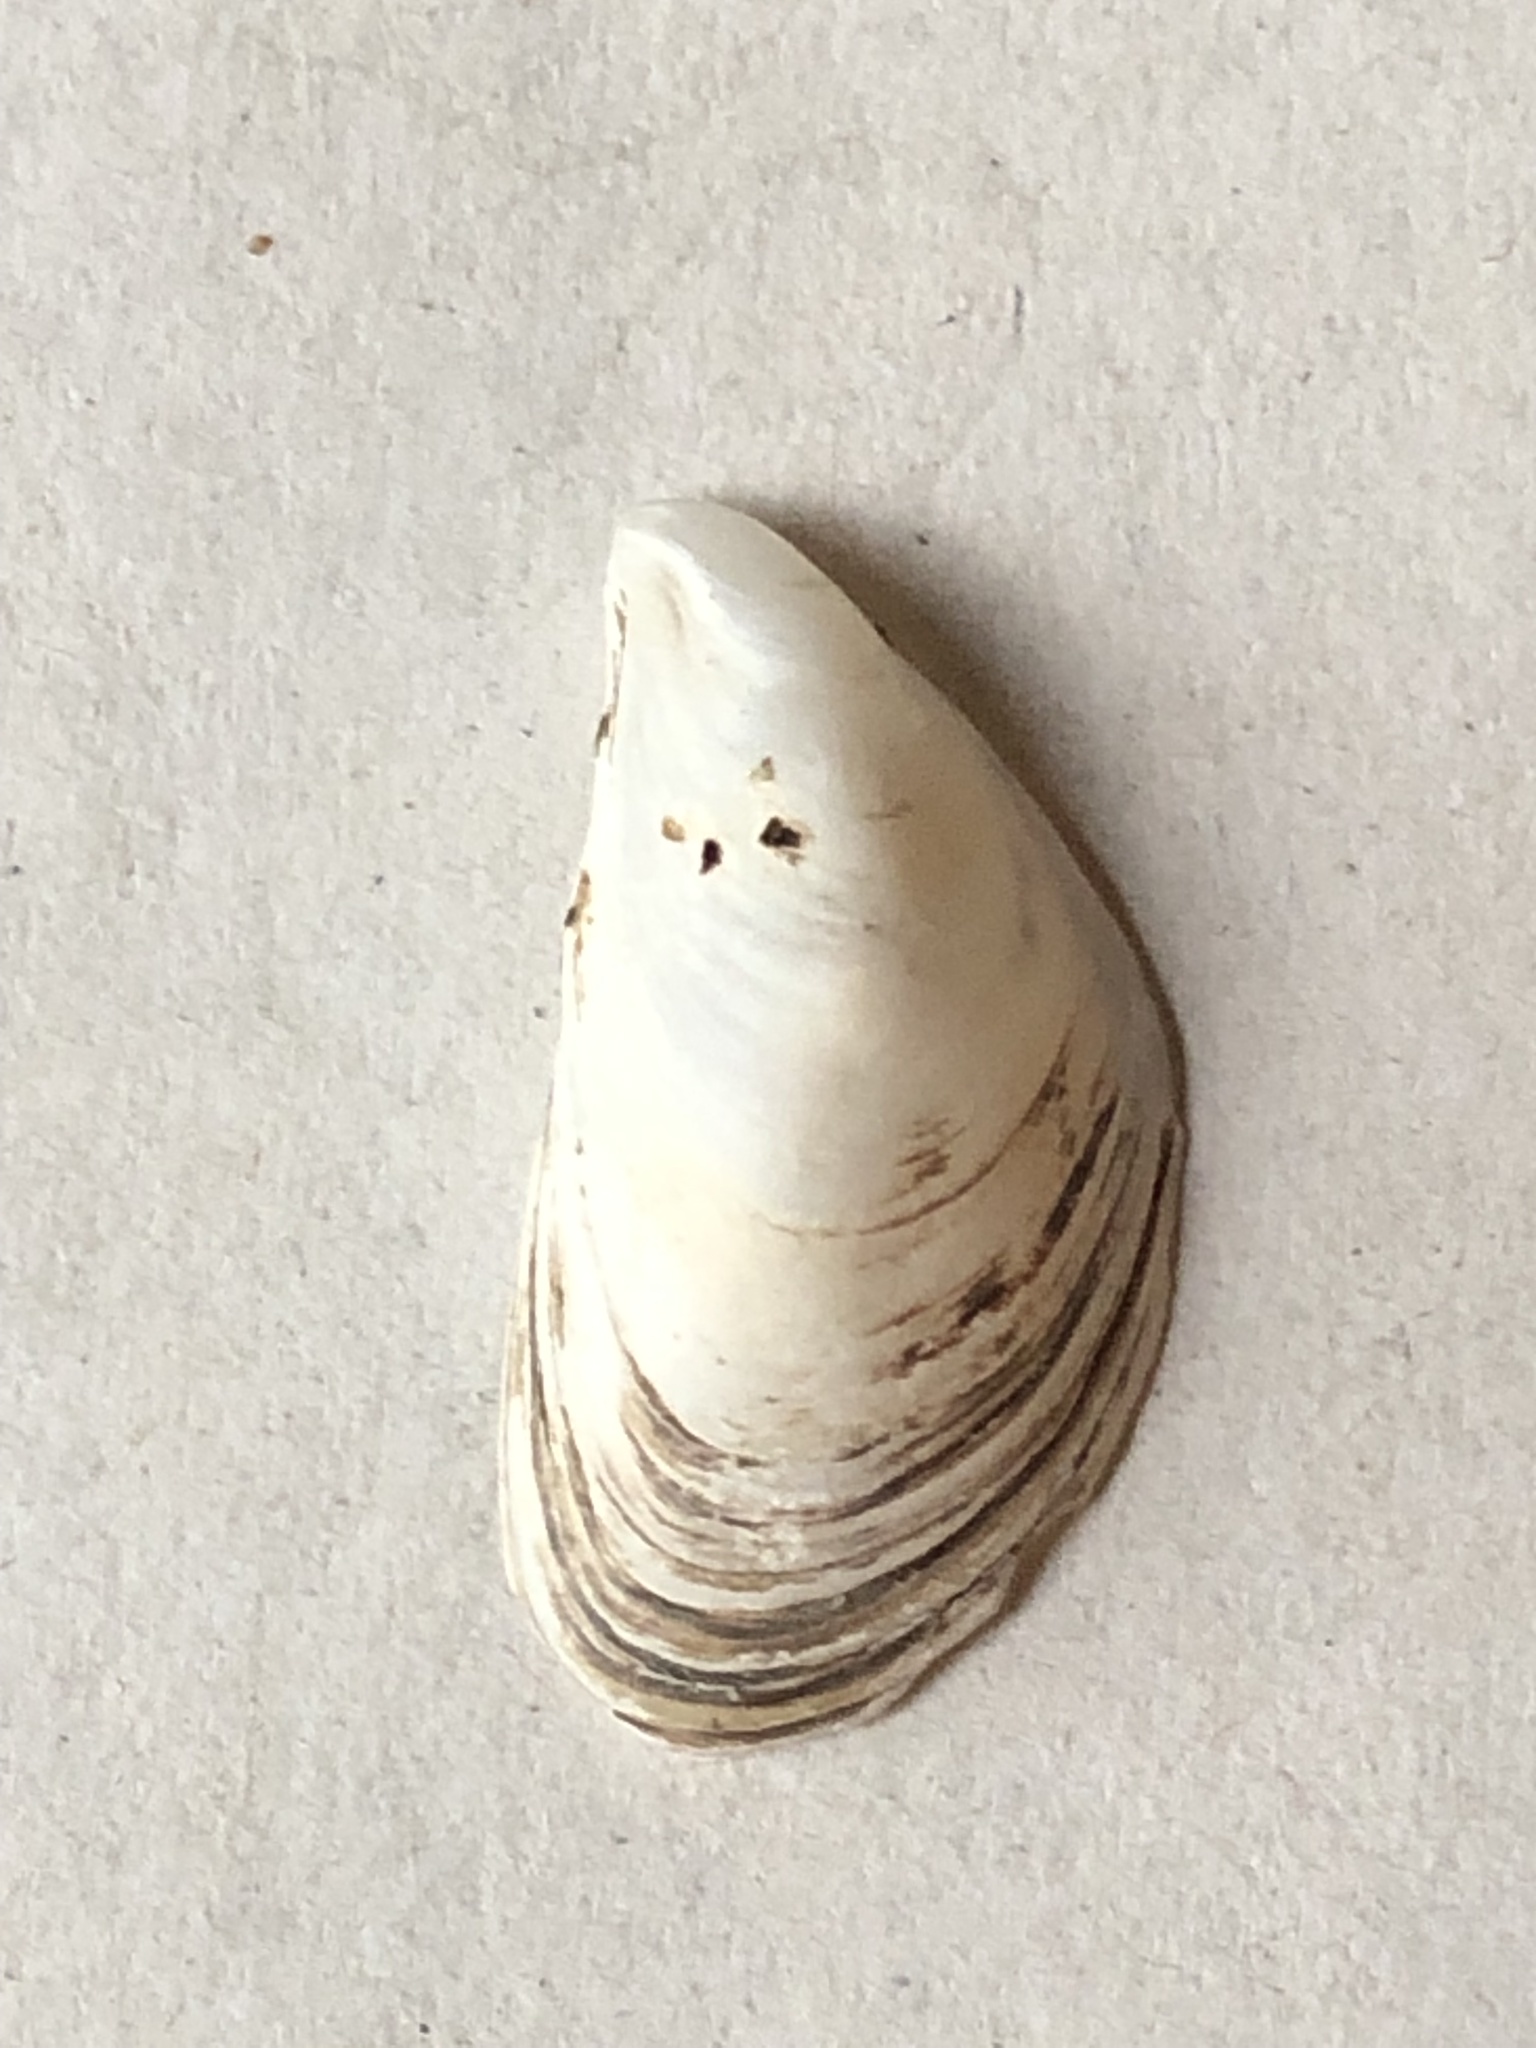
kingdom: Animalia
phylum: Mollusca
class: Bivalvia
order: Myida
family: Dreissenidae
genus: Dreissena
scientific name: Dreissena bugensis
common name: Quagga mussel
